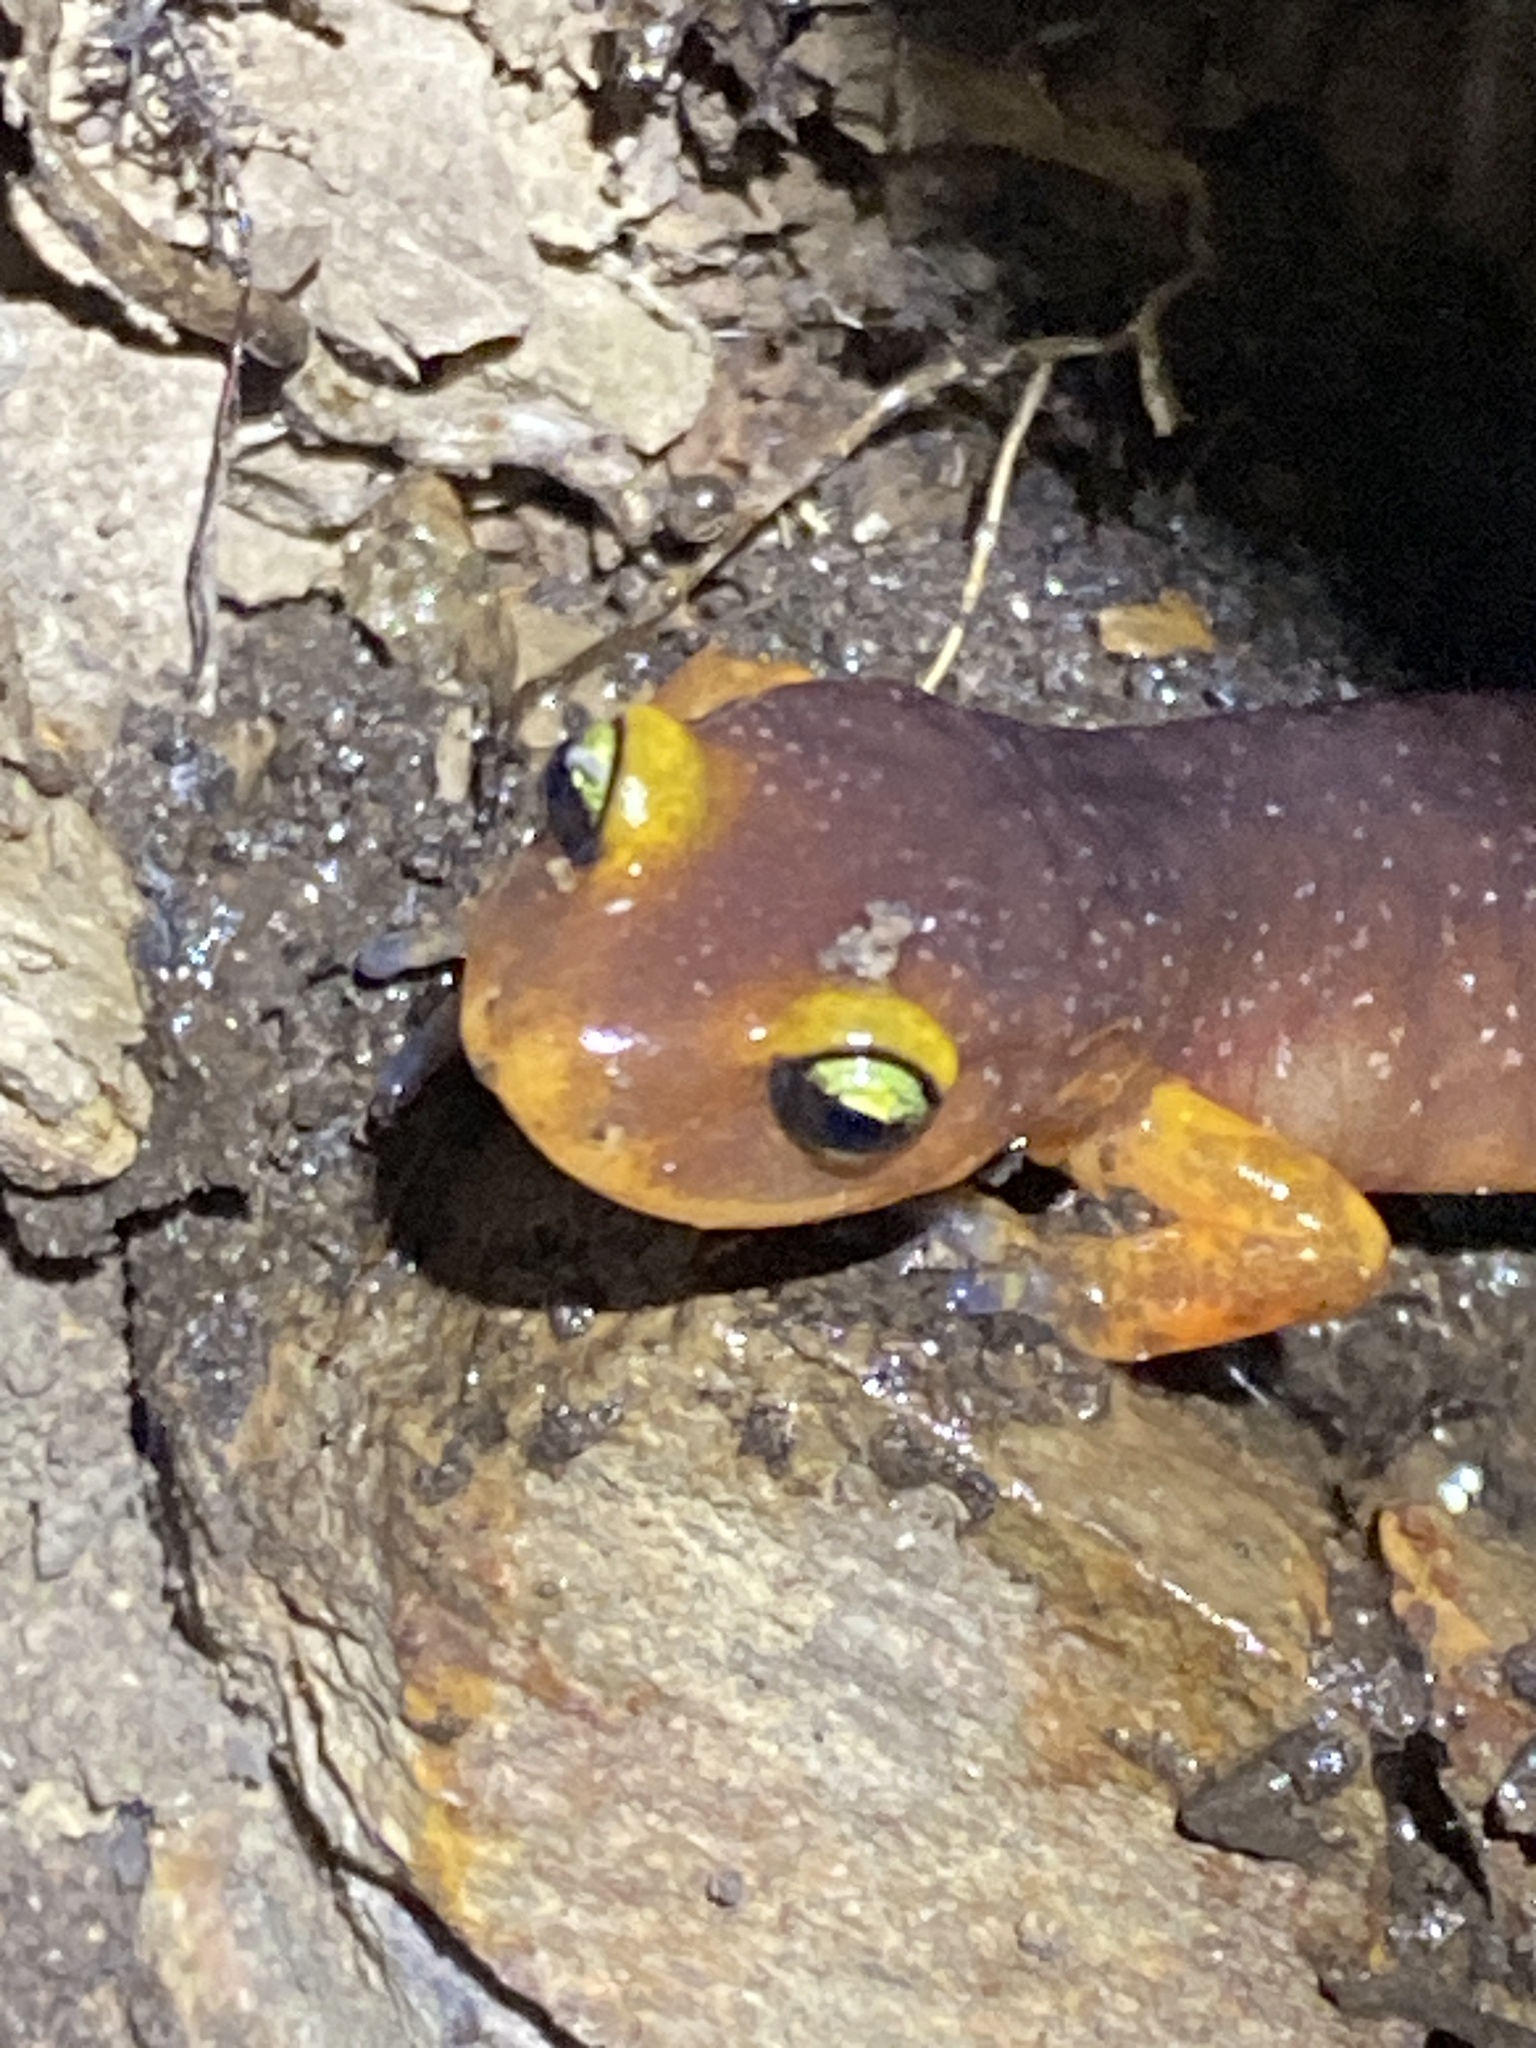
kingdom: Animalia
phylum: Chordata
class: Amphibia
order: Caudata
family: Plethodontidae
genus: Ensatina
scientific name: Ensatina eschscholtzii
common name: Ensatina
